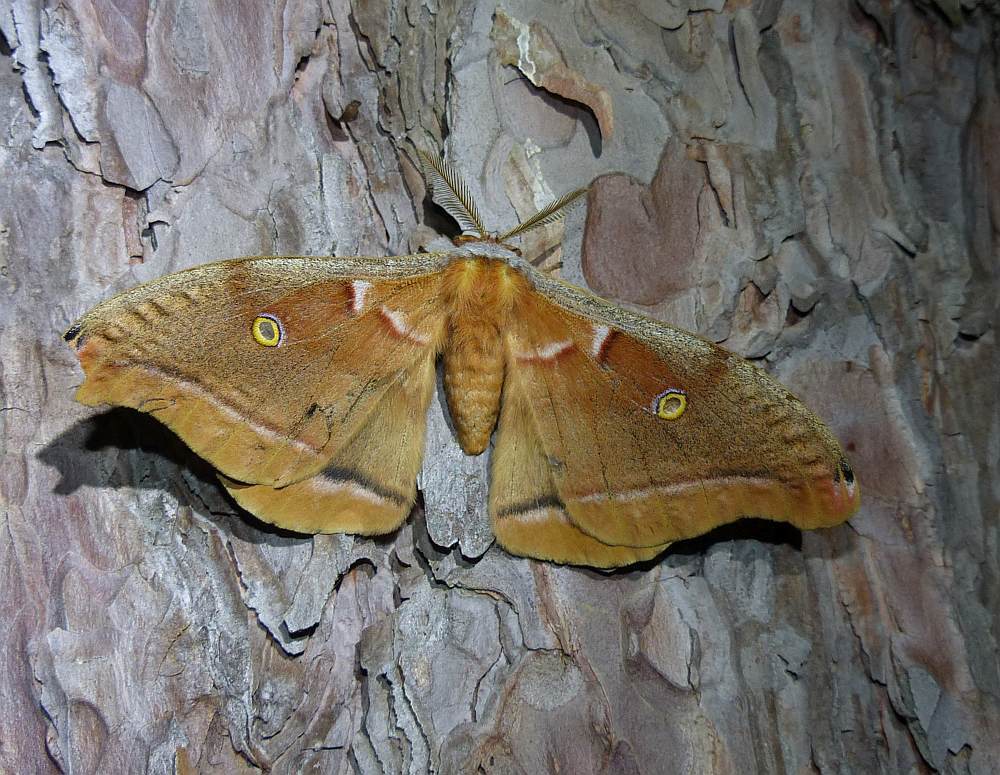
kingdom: Animalia
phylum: Arthropoda
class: Insecta
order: Lepidoptera
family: Saturniidae
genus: Antheraea
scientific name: Antheraea polyphemus
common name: Polyphemus moth
